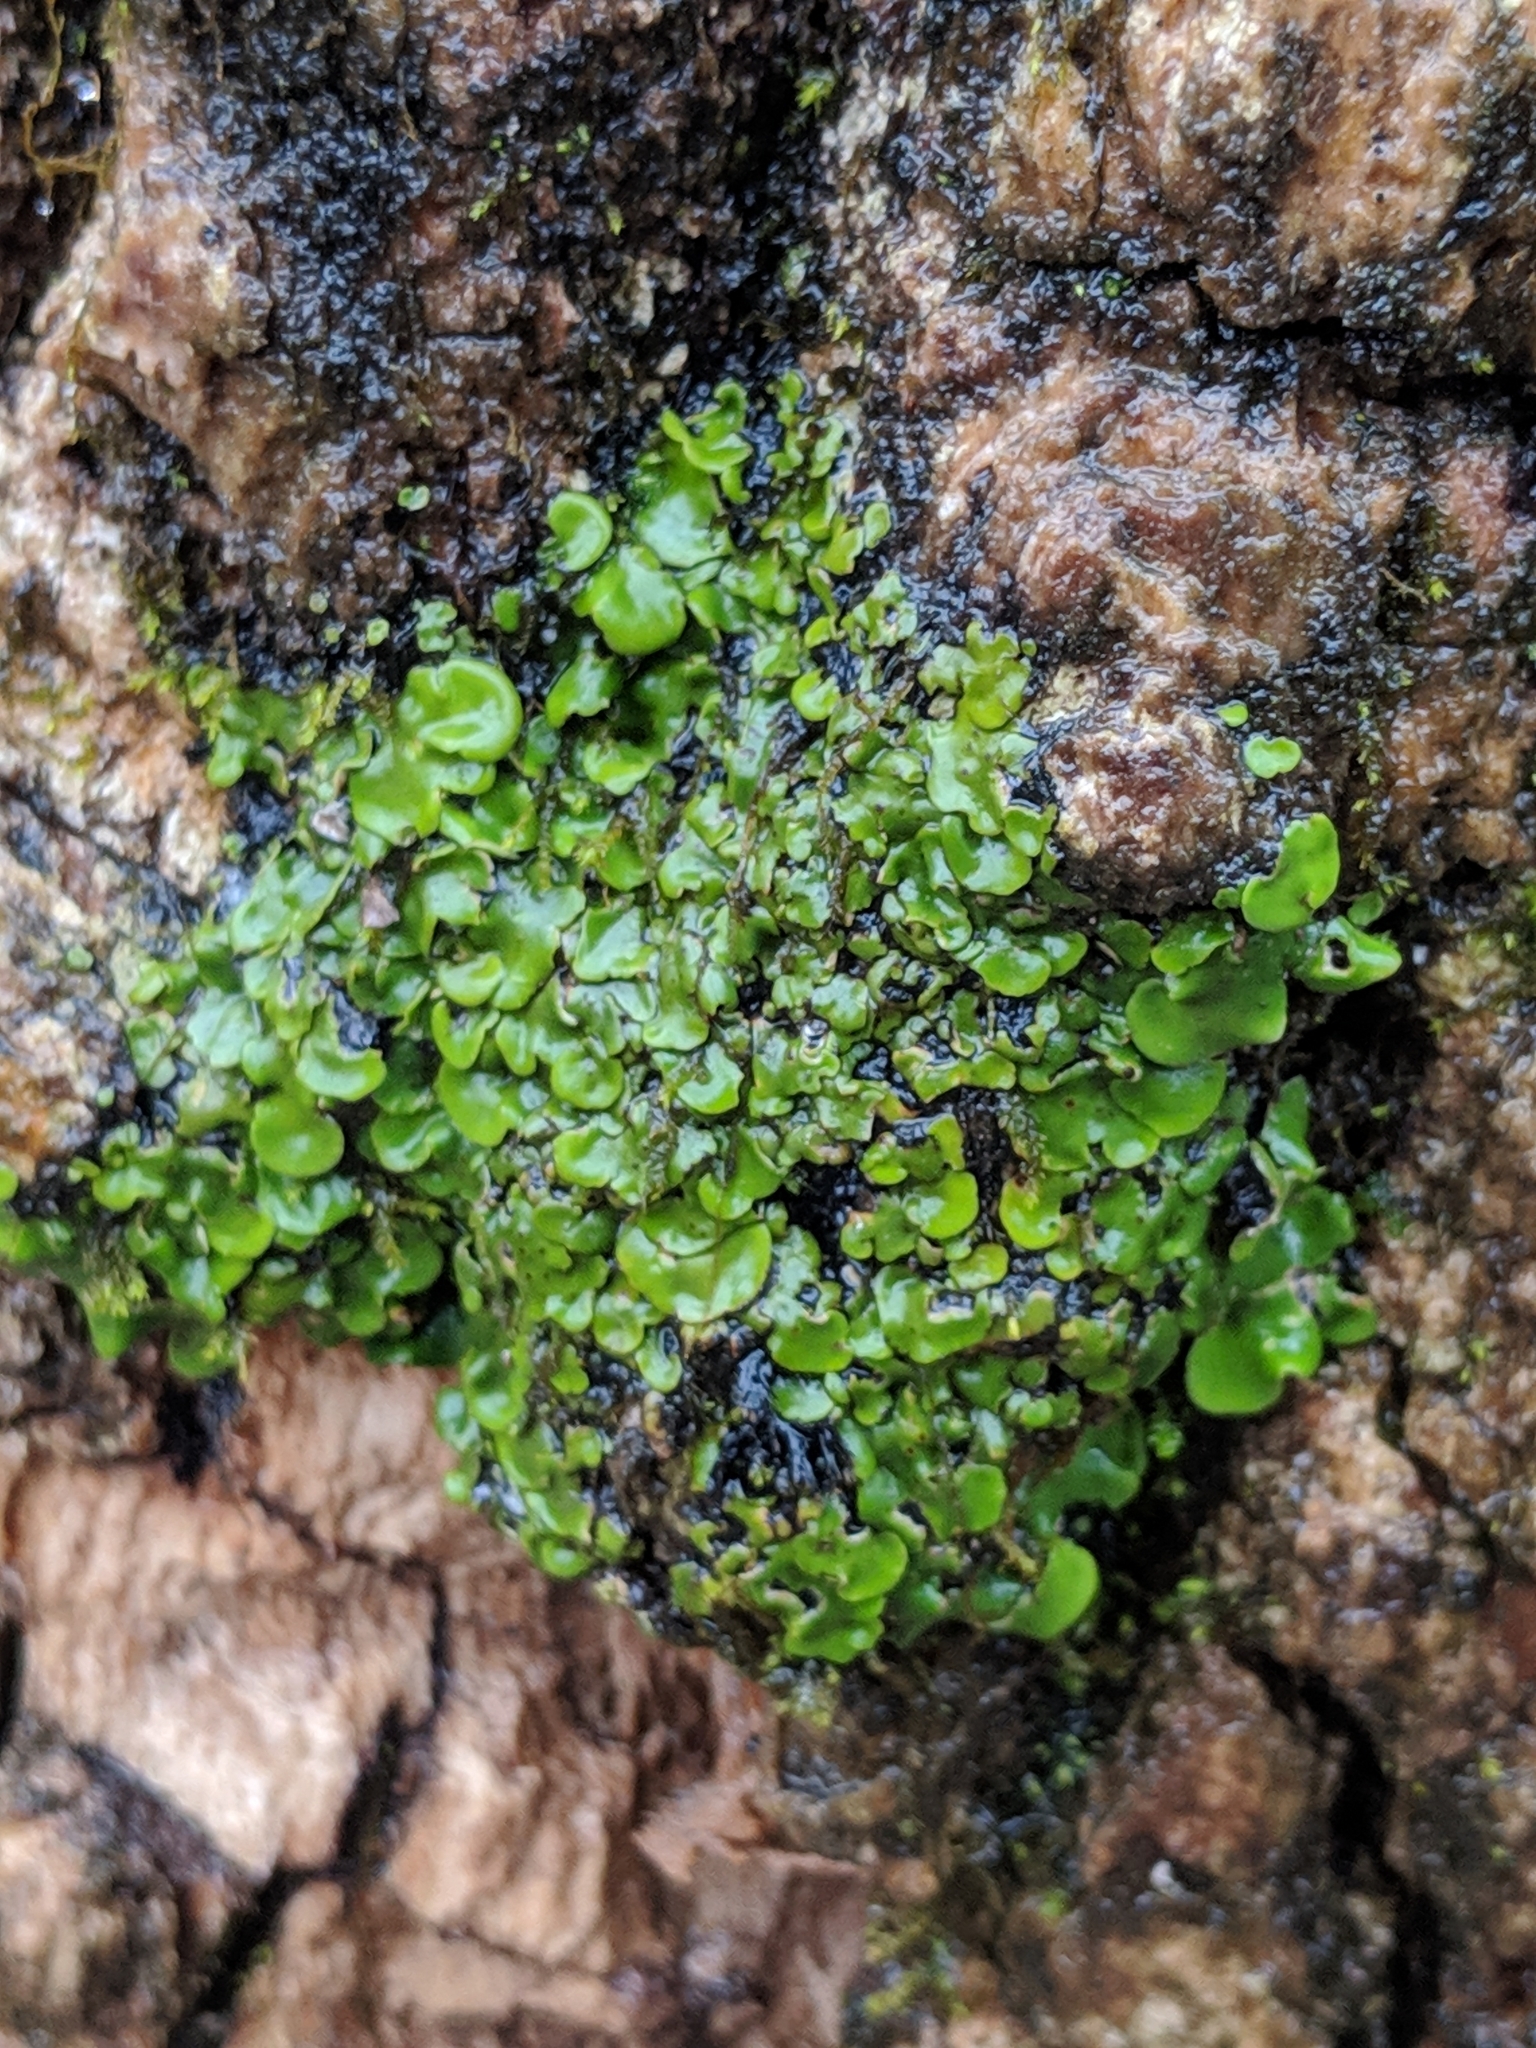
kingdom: Fungi
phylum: Ascomycota
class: Eurotiomycetes
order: Verrucariales
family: Verrucariaceae
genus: Dermatocarpon
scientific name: Dermatocarpon luridum
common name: Brook stippleback lichen
